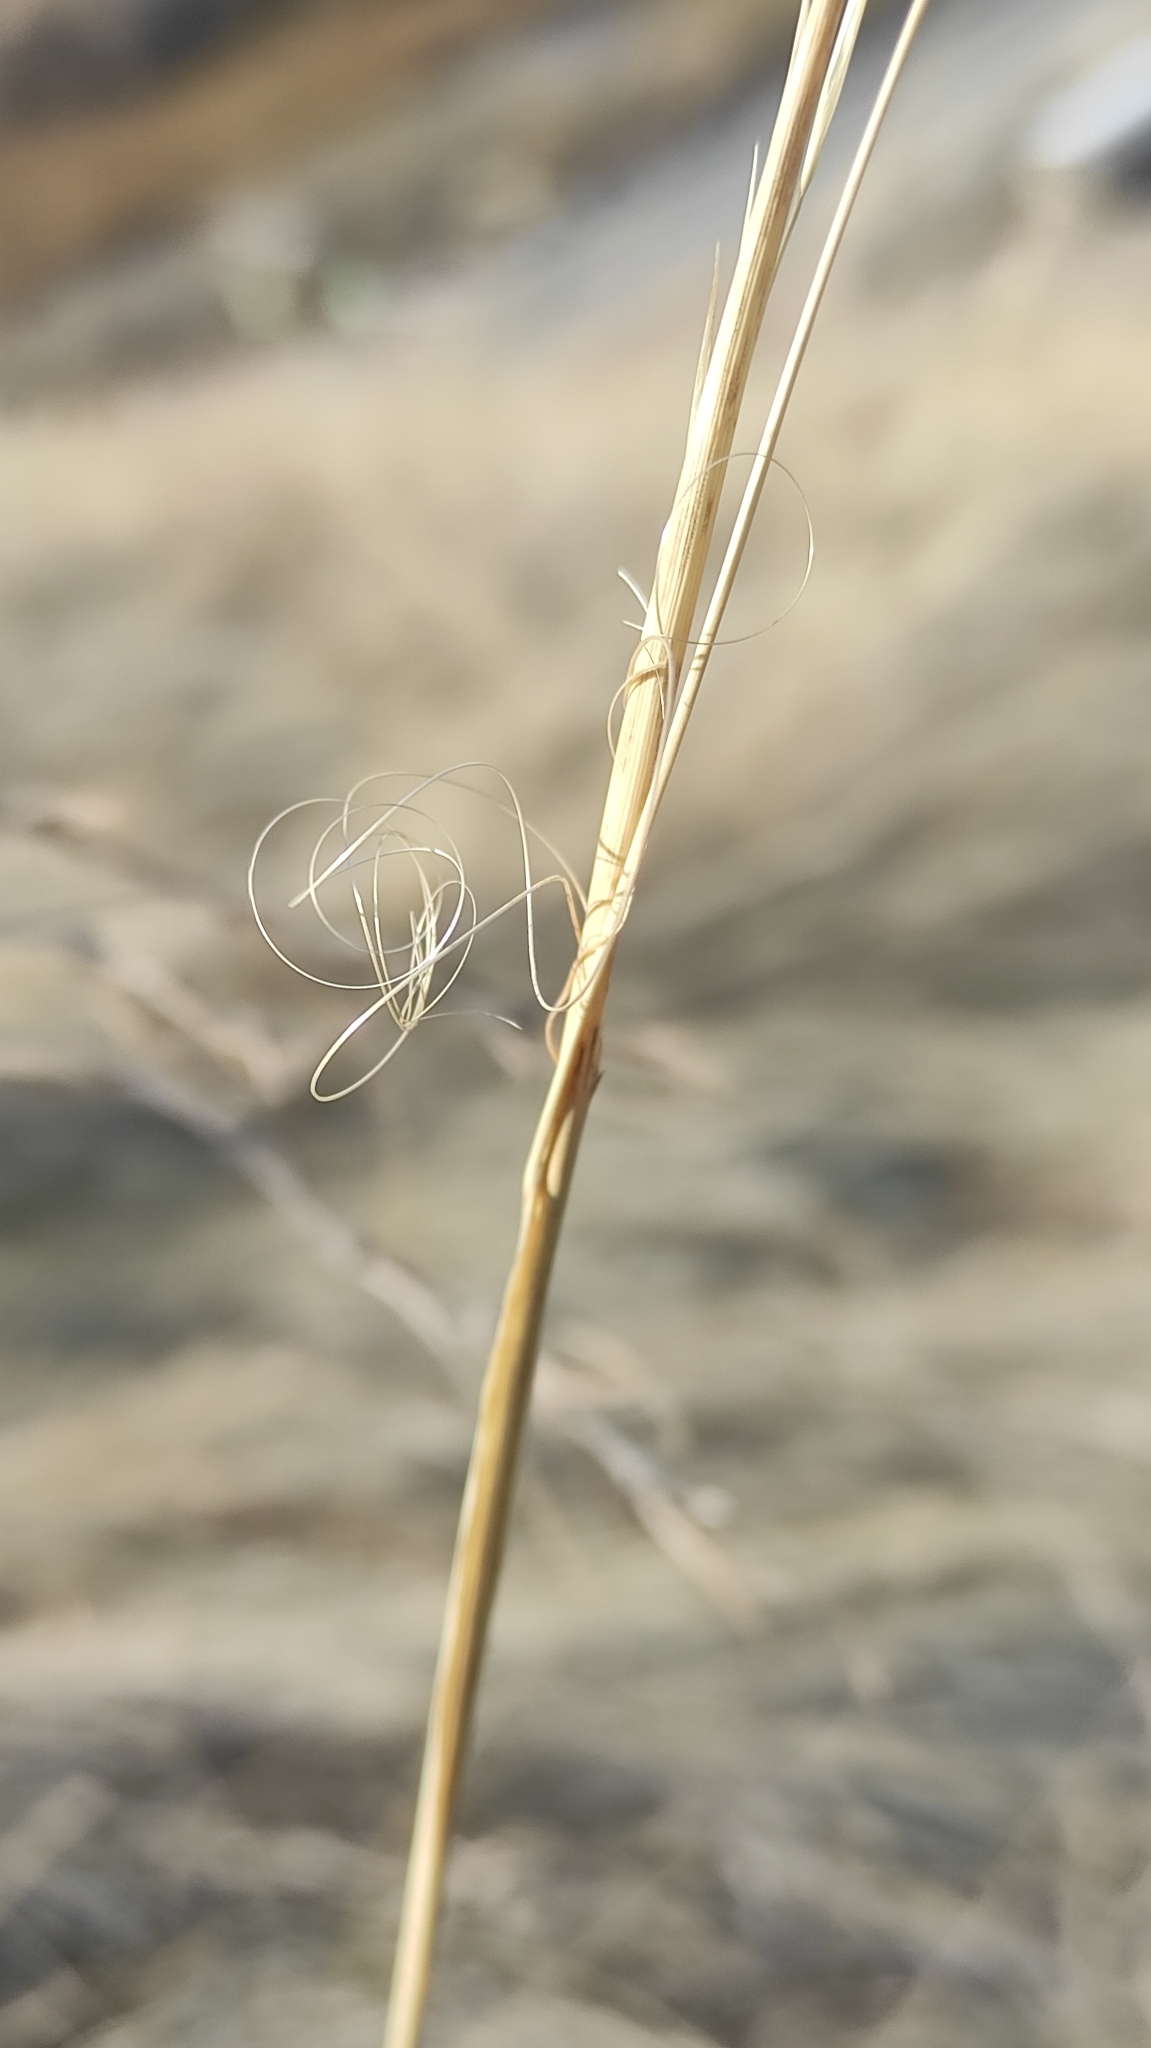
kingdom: Plantae
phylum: Tracheophyta
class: Liliopsida
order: Poales
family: Poaceae
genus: Stipa
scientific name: Stipa capillata
